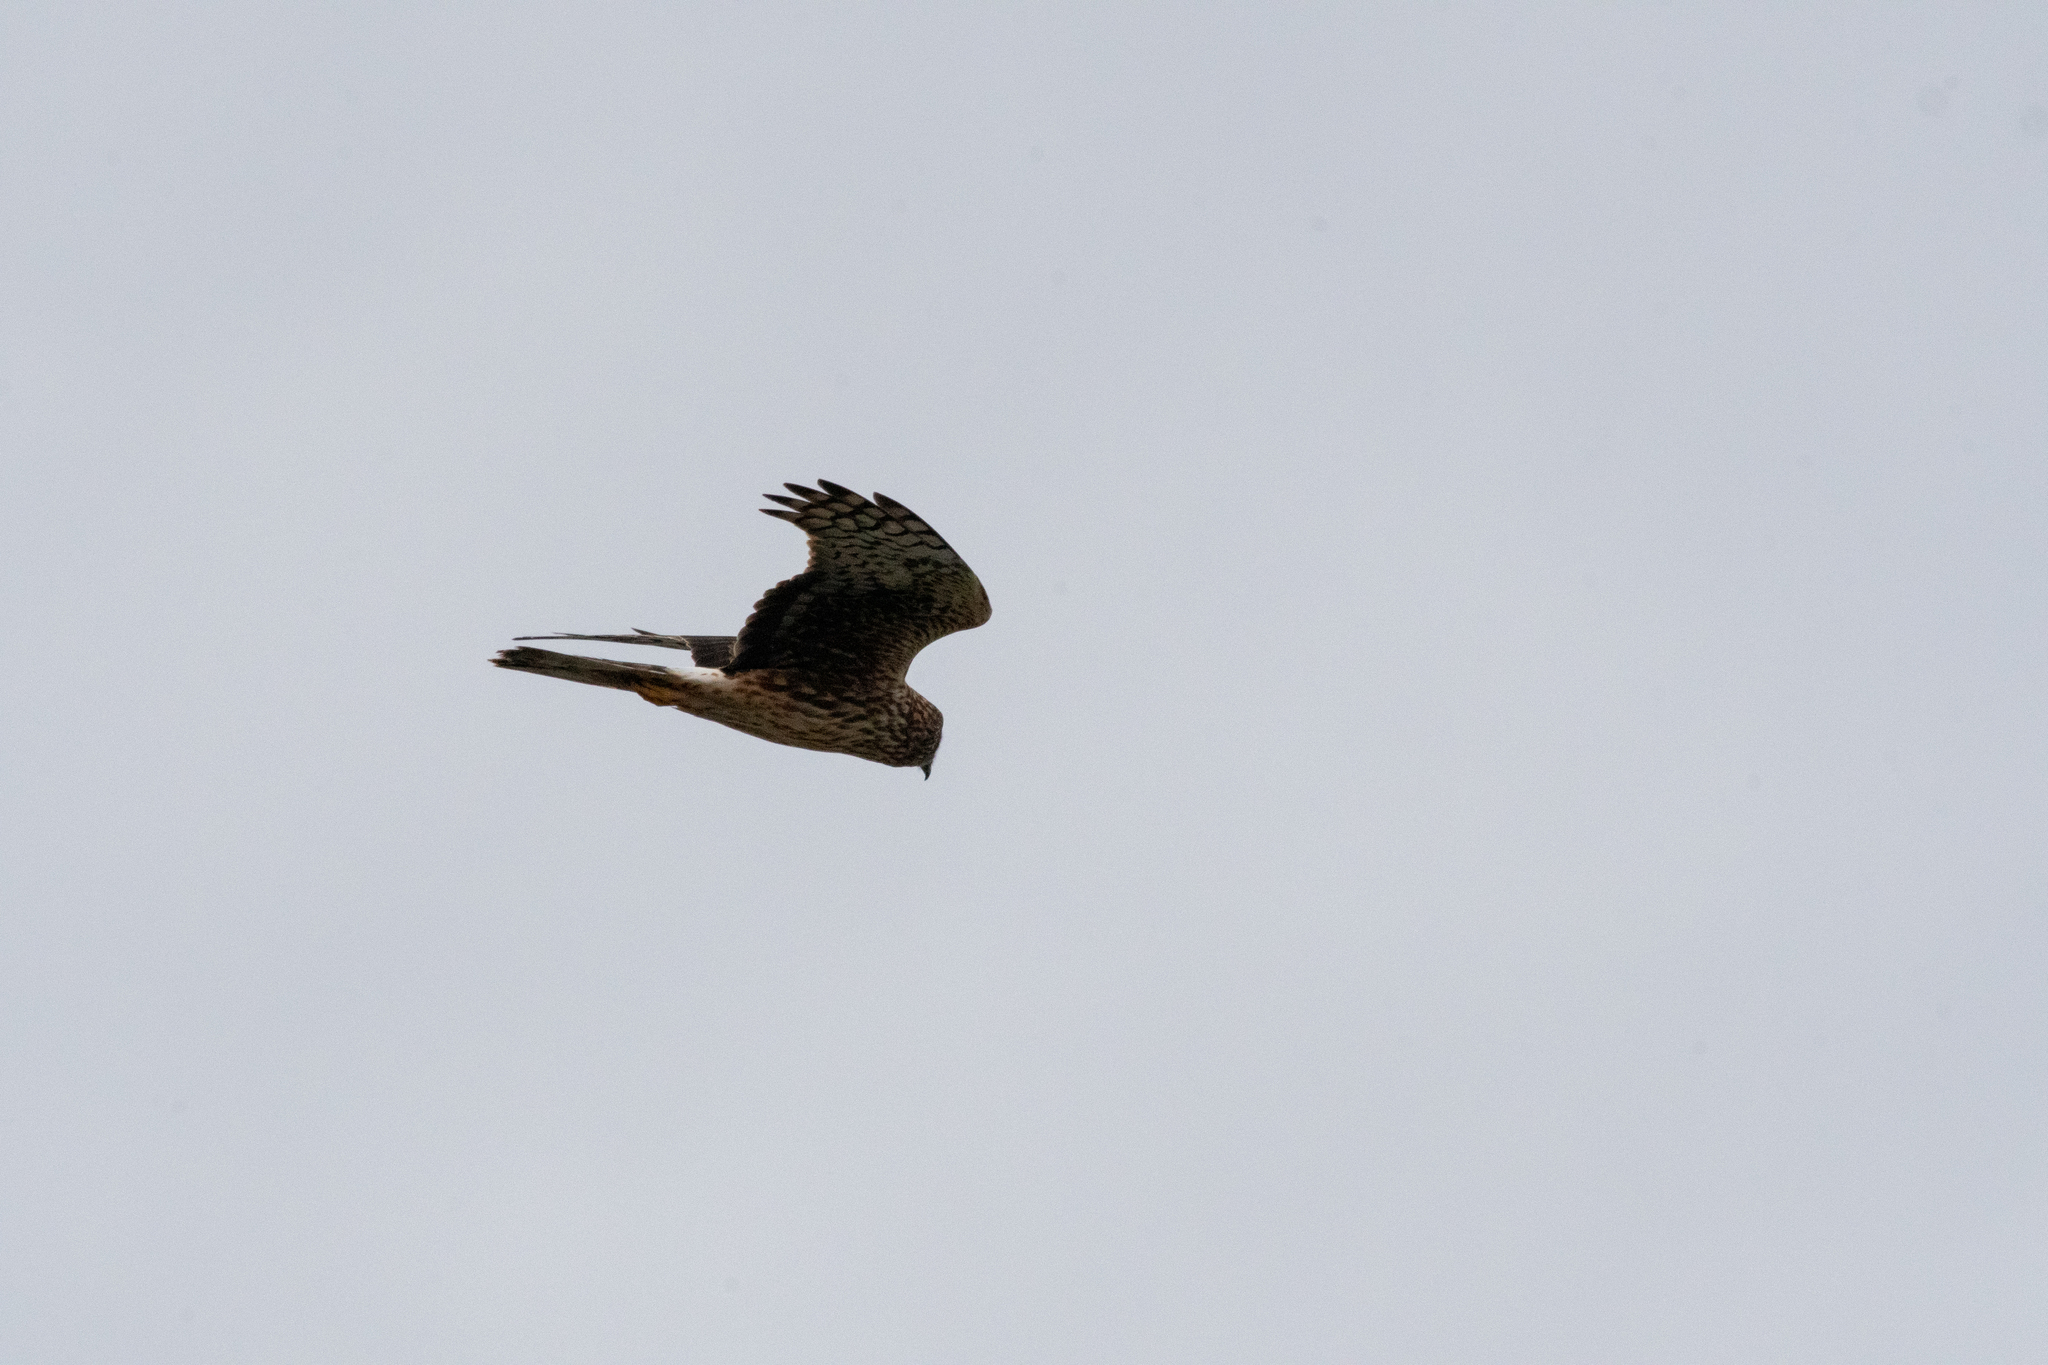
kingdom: Animalia
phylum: Chordata
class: Aves
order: Accipitriformes
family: Accipitridae
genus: Circus
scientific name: Circus cyaneus
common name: Hen harrier
